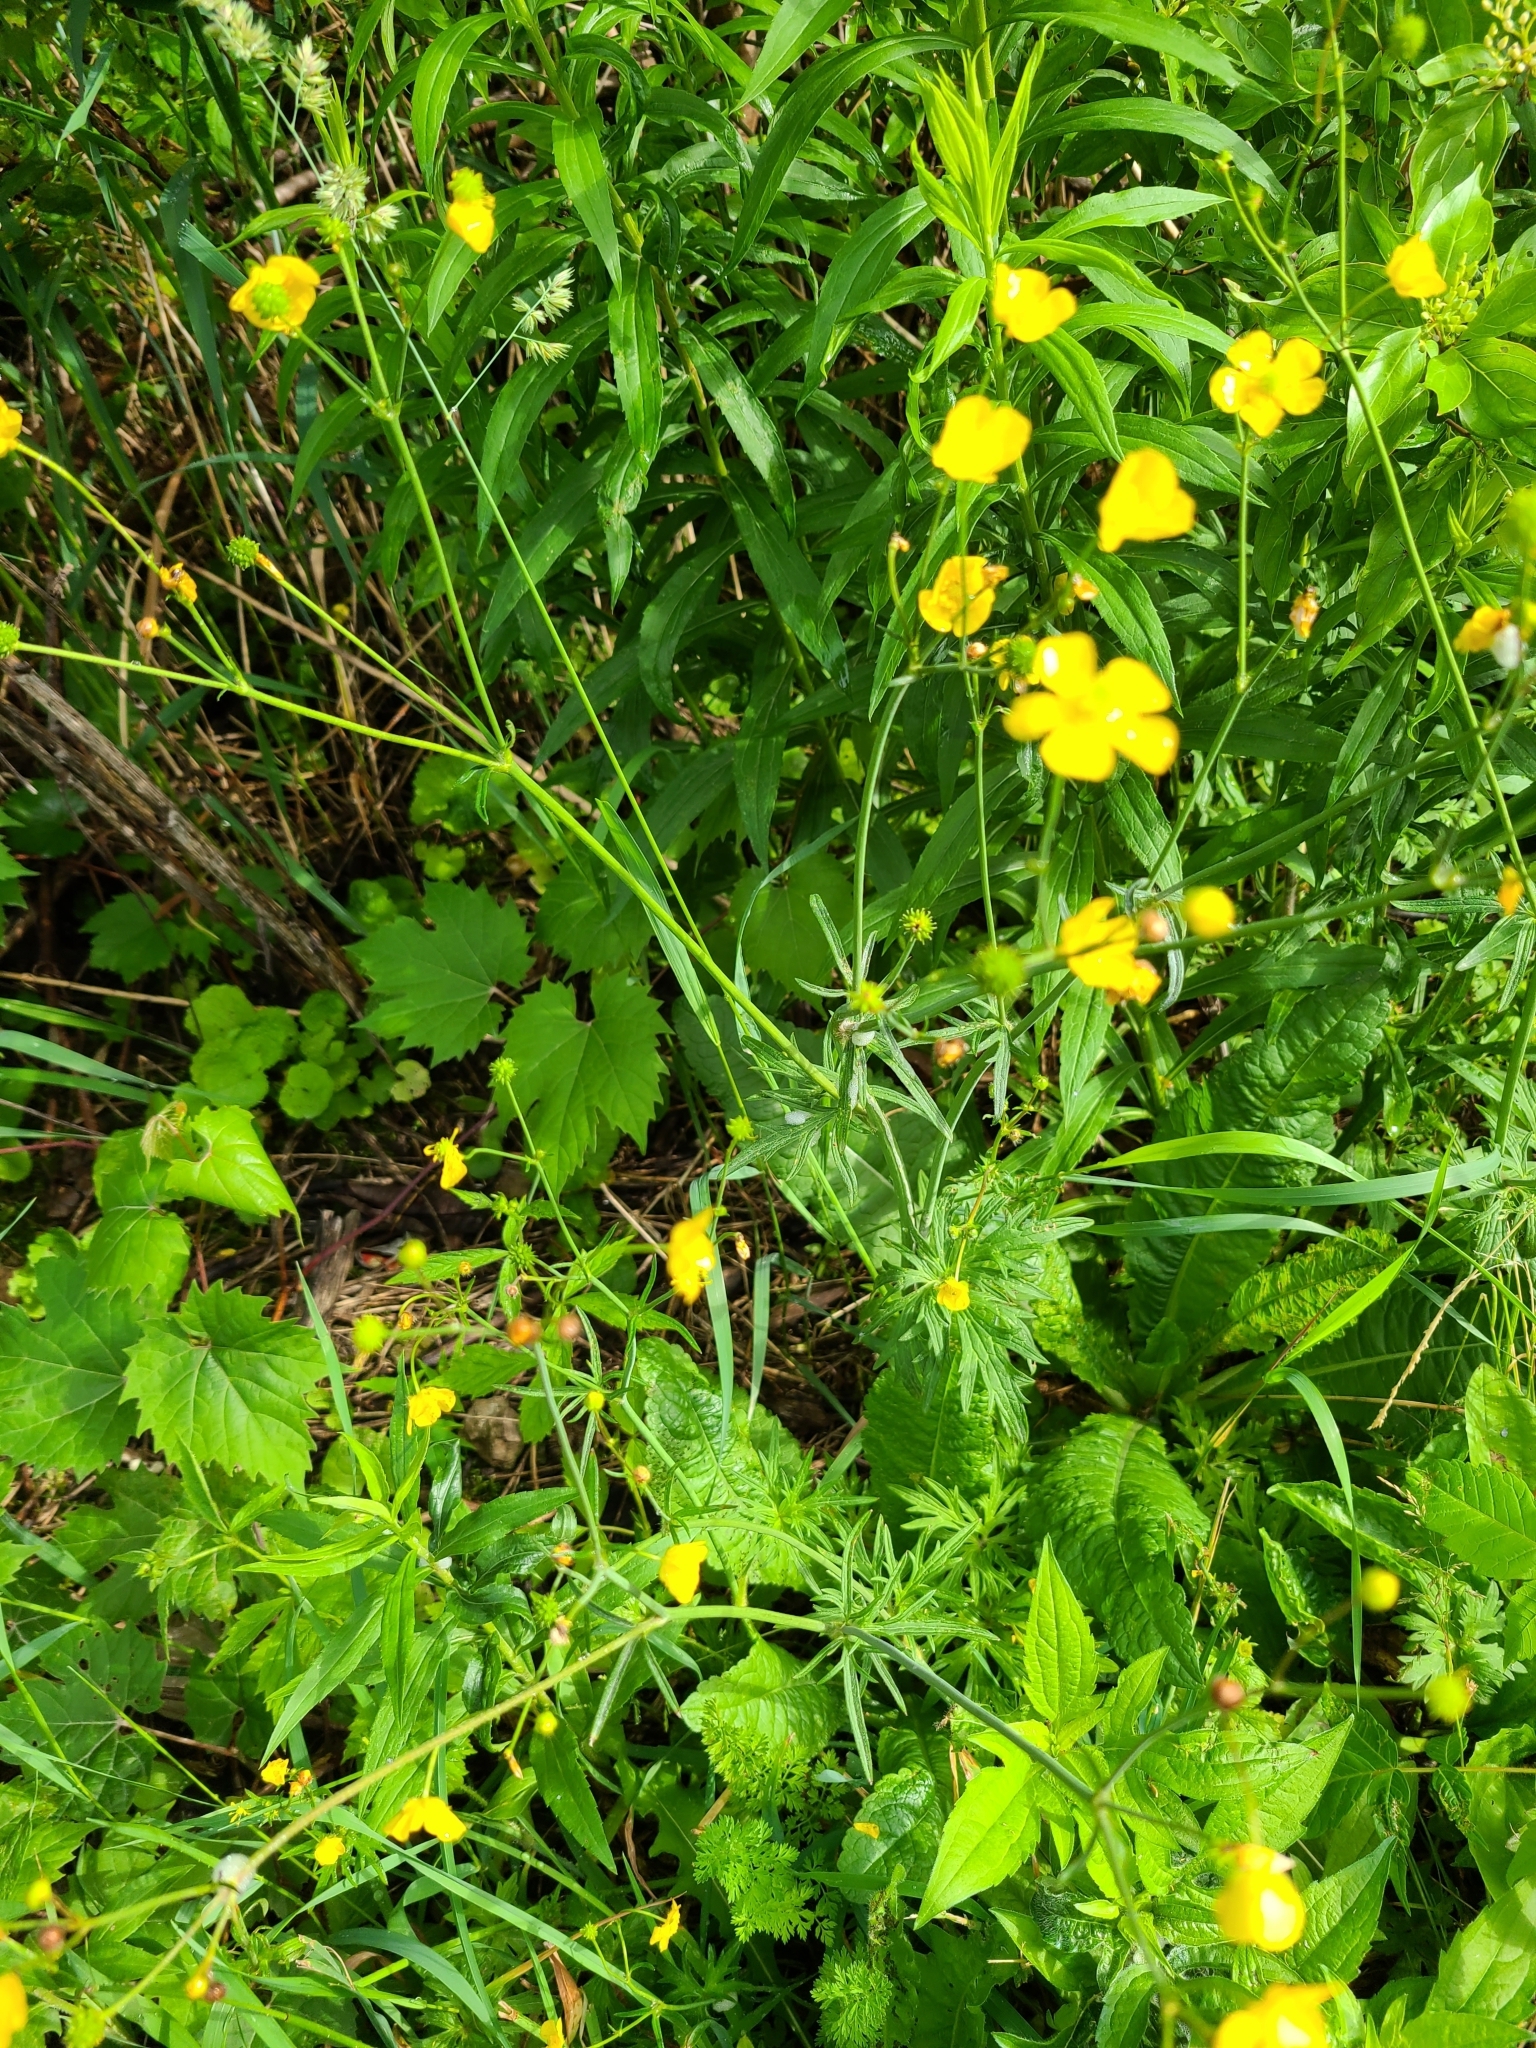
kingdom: Plantae
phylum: Tracheophyta
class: Magnoliopsida
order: Ranunculales
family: Ranunculaceae
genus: Ranunculus
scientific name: Ranunculus acris
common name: Meadow buttercup
